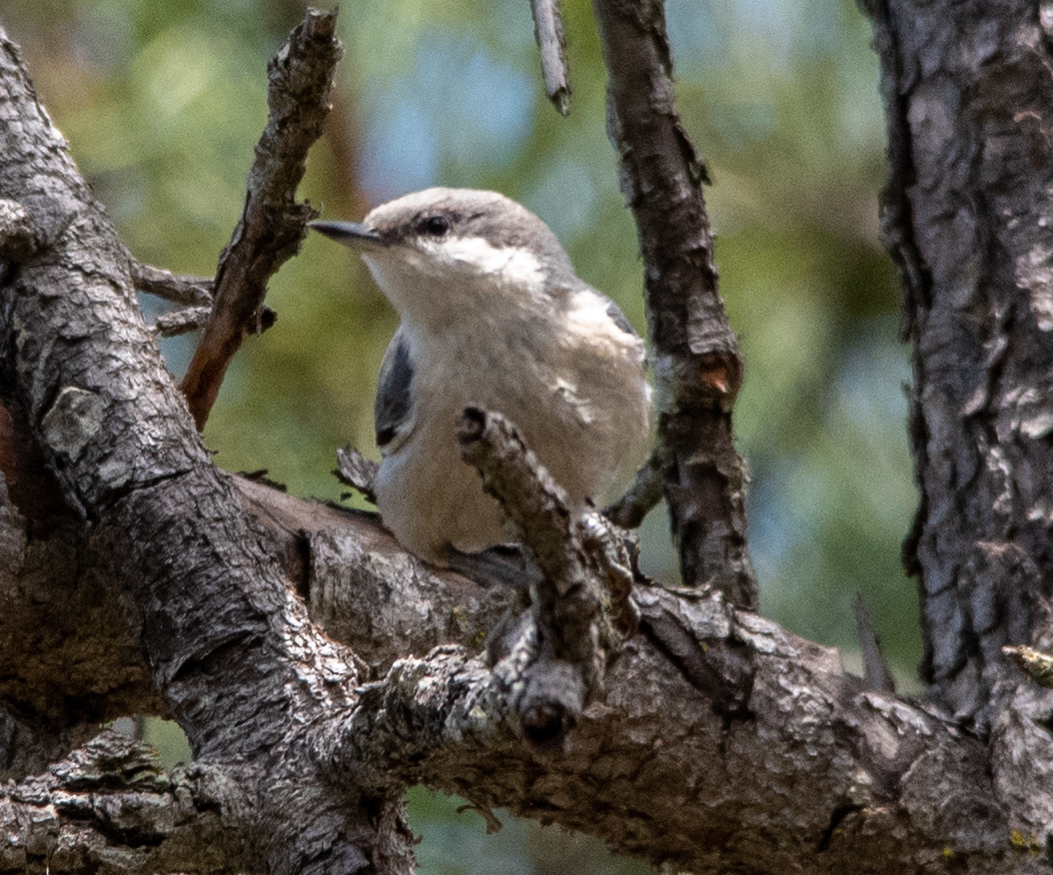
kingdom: Animalia
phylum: Chordata
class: Aves
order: Passeriformes
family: Sittidae
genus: Sitta
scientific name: Sitta pygmaea
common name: Pygmy nuthatch
